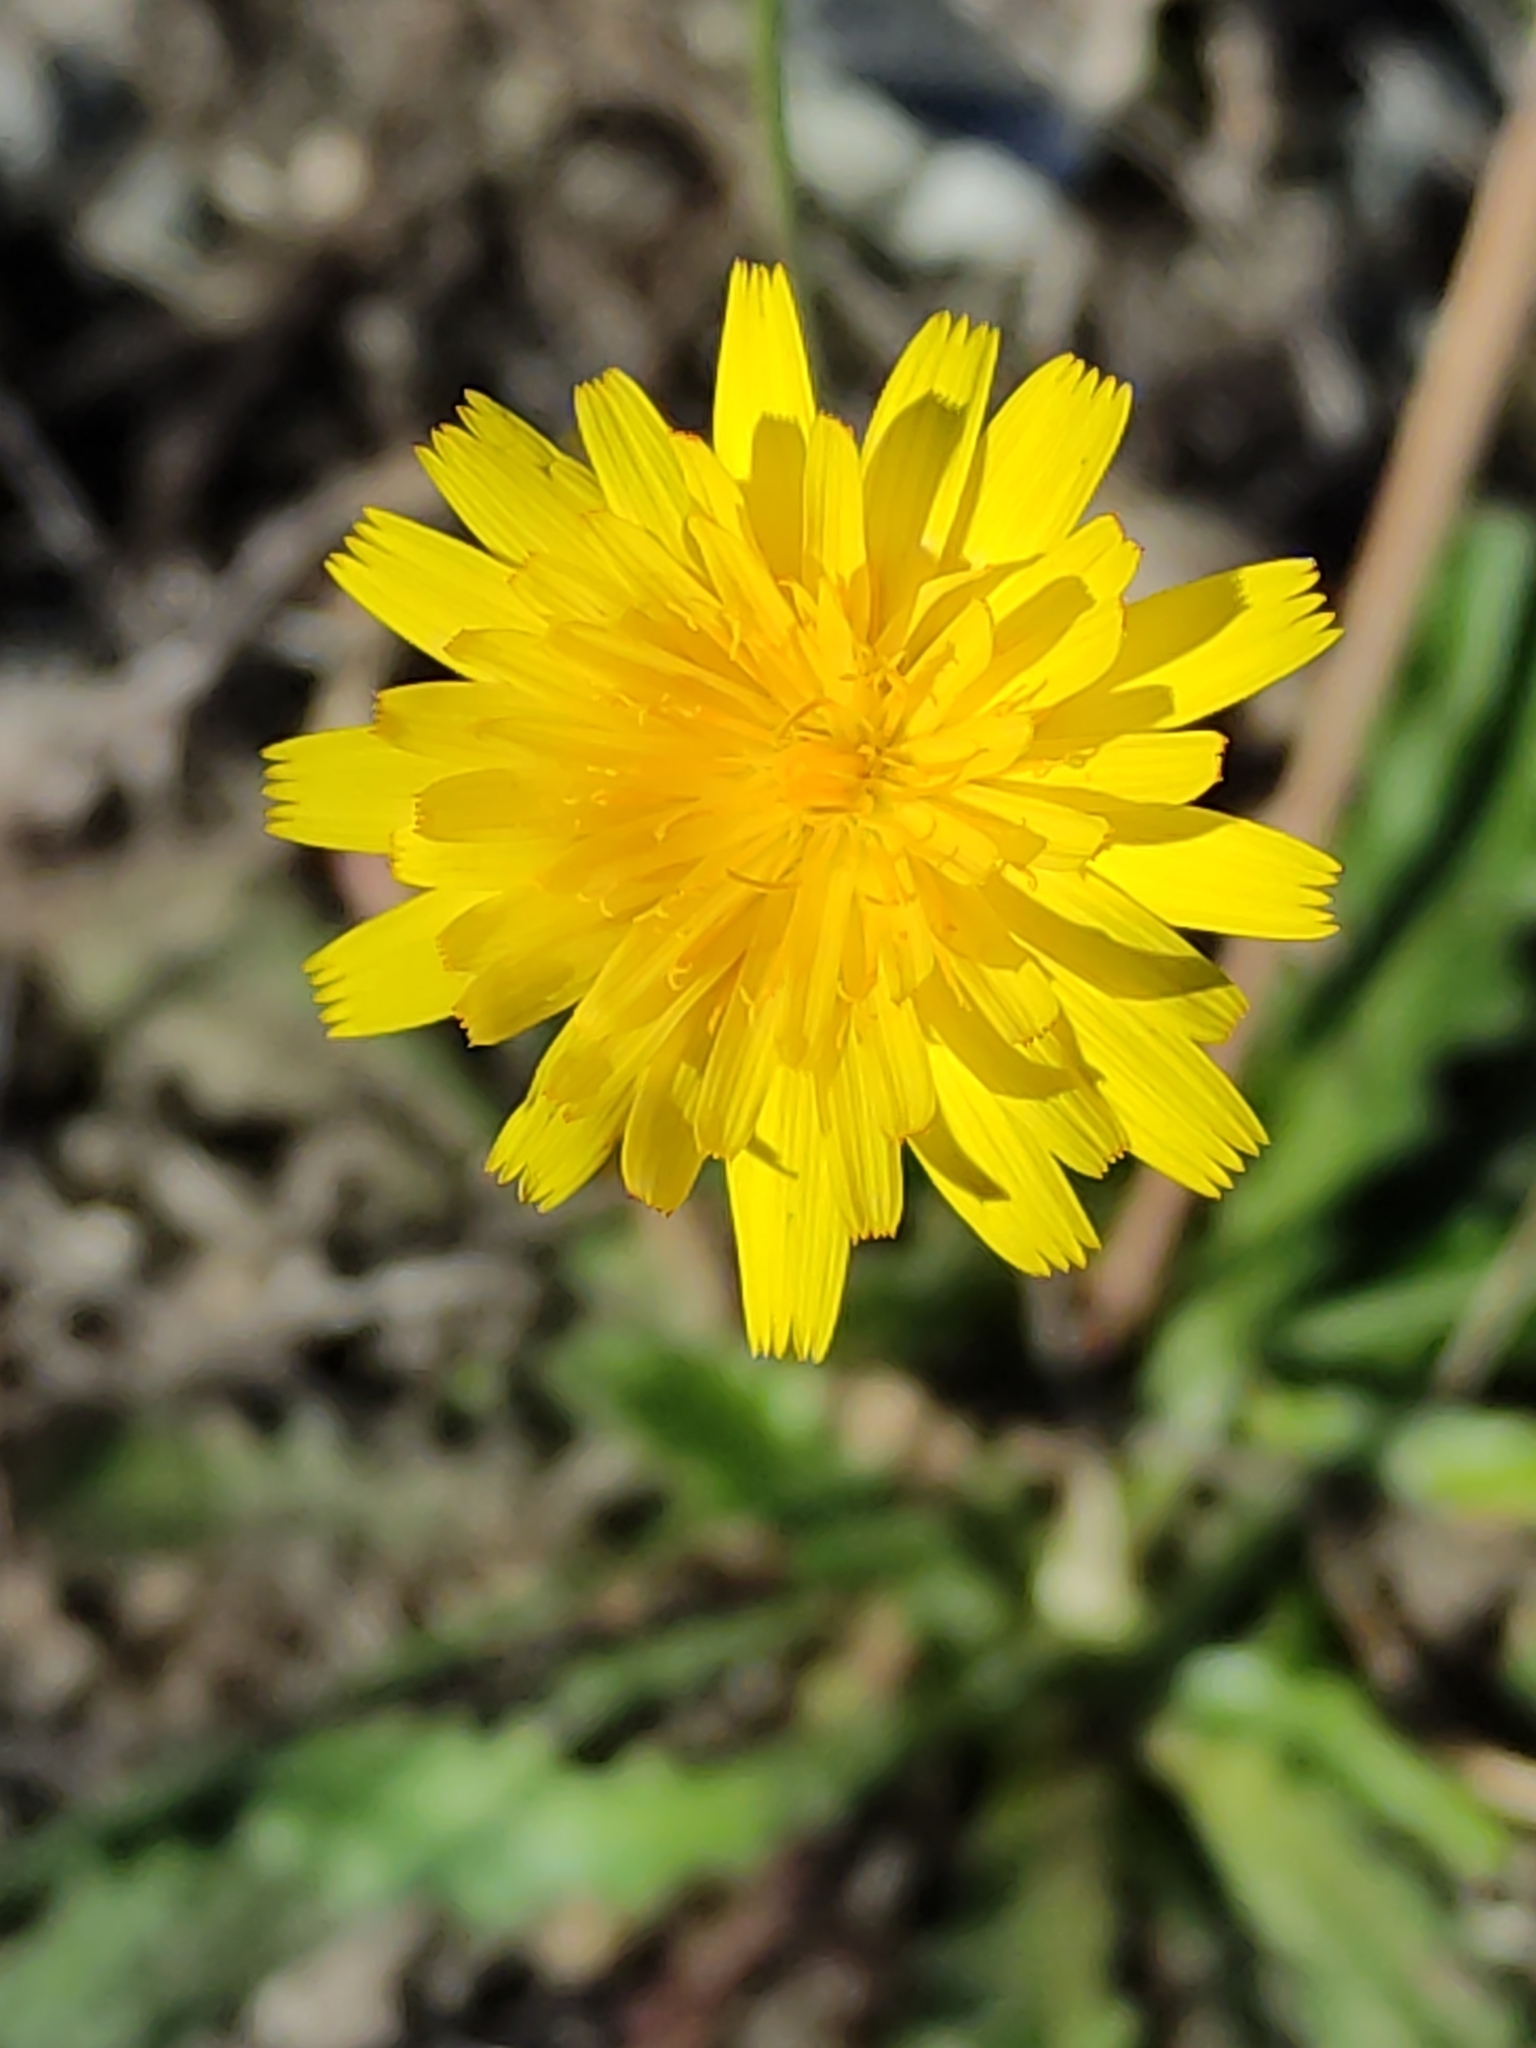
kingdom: Plantae
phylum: Tracheophyta
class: Magnoliopsida
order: Asterales
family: Asteraceae
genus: Hypochaeris
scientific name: Hypochaeris radicata
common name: Flatweed
